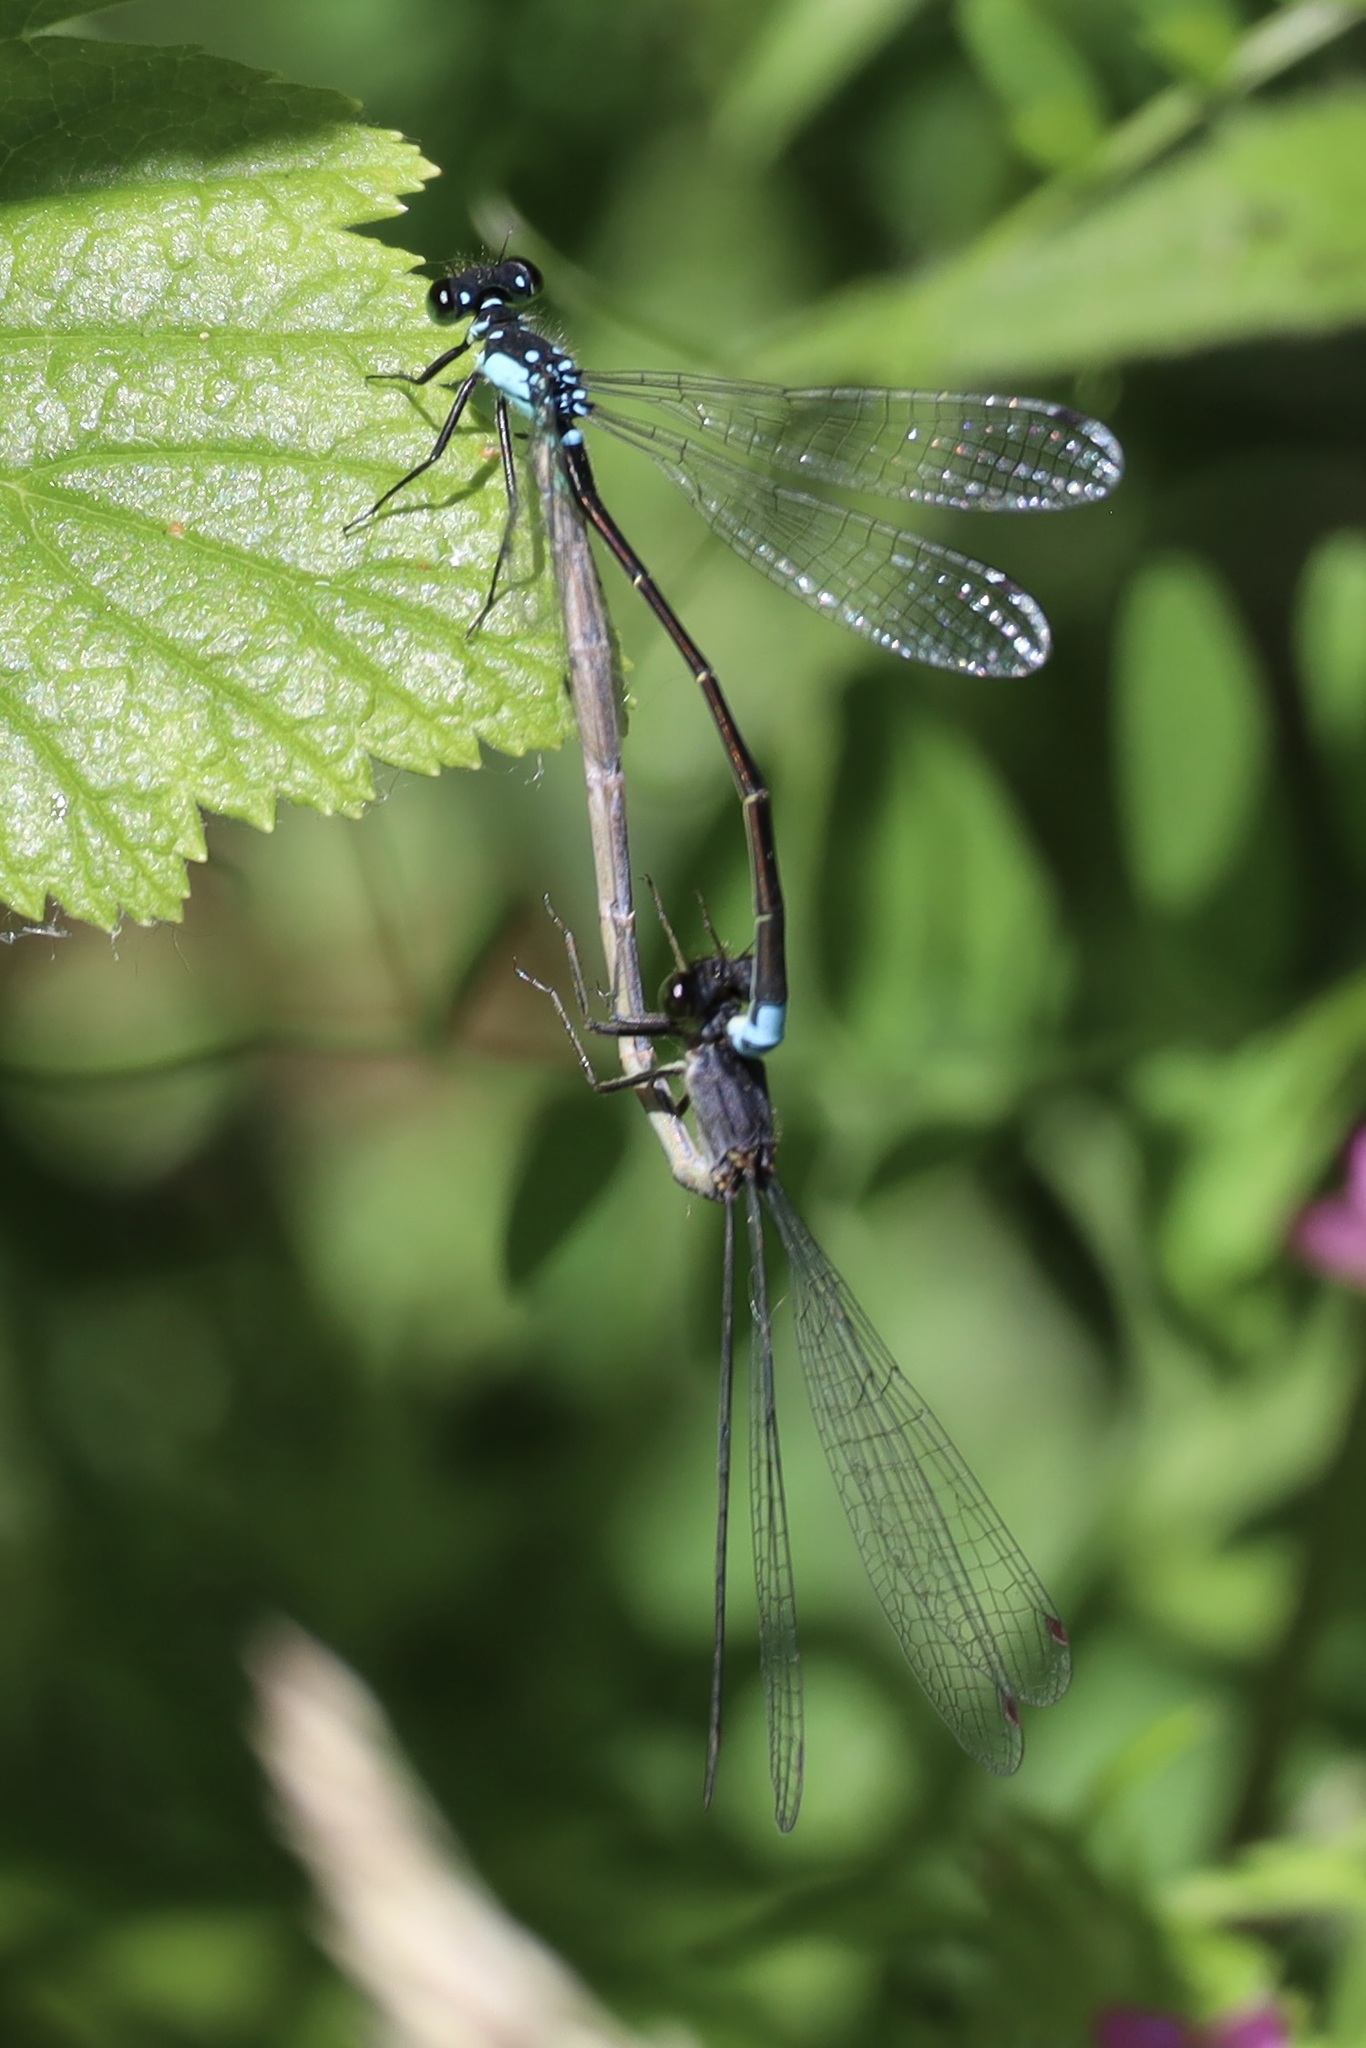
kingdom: Animalia
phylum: Arthropoda
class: Insecta
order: Odonata
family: Coenagrionidae
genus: Ischnura
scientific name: Ischnura cervula
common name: Pacific forktail
